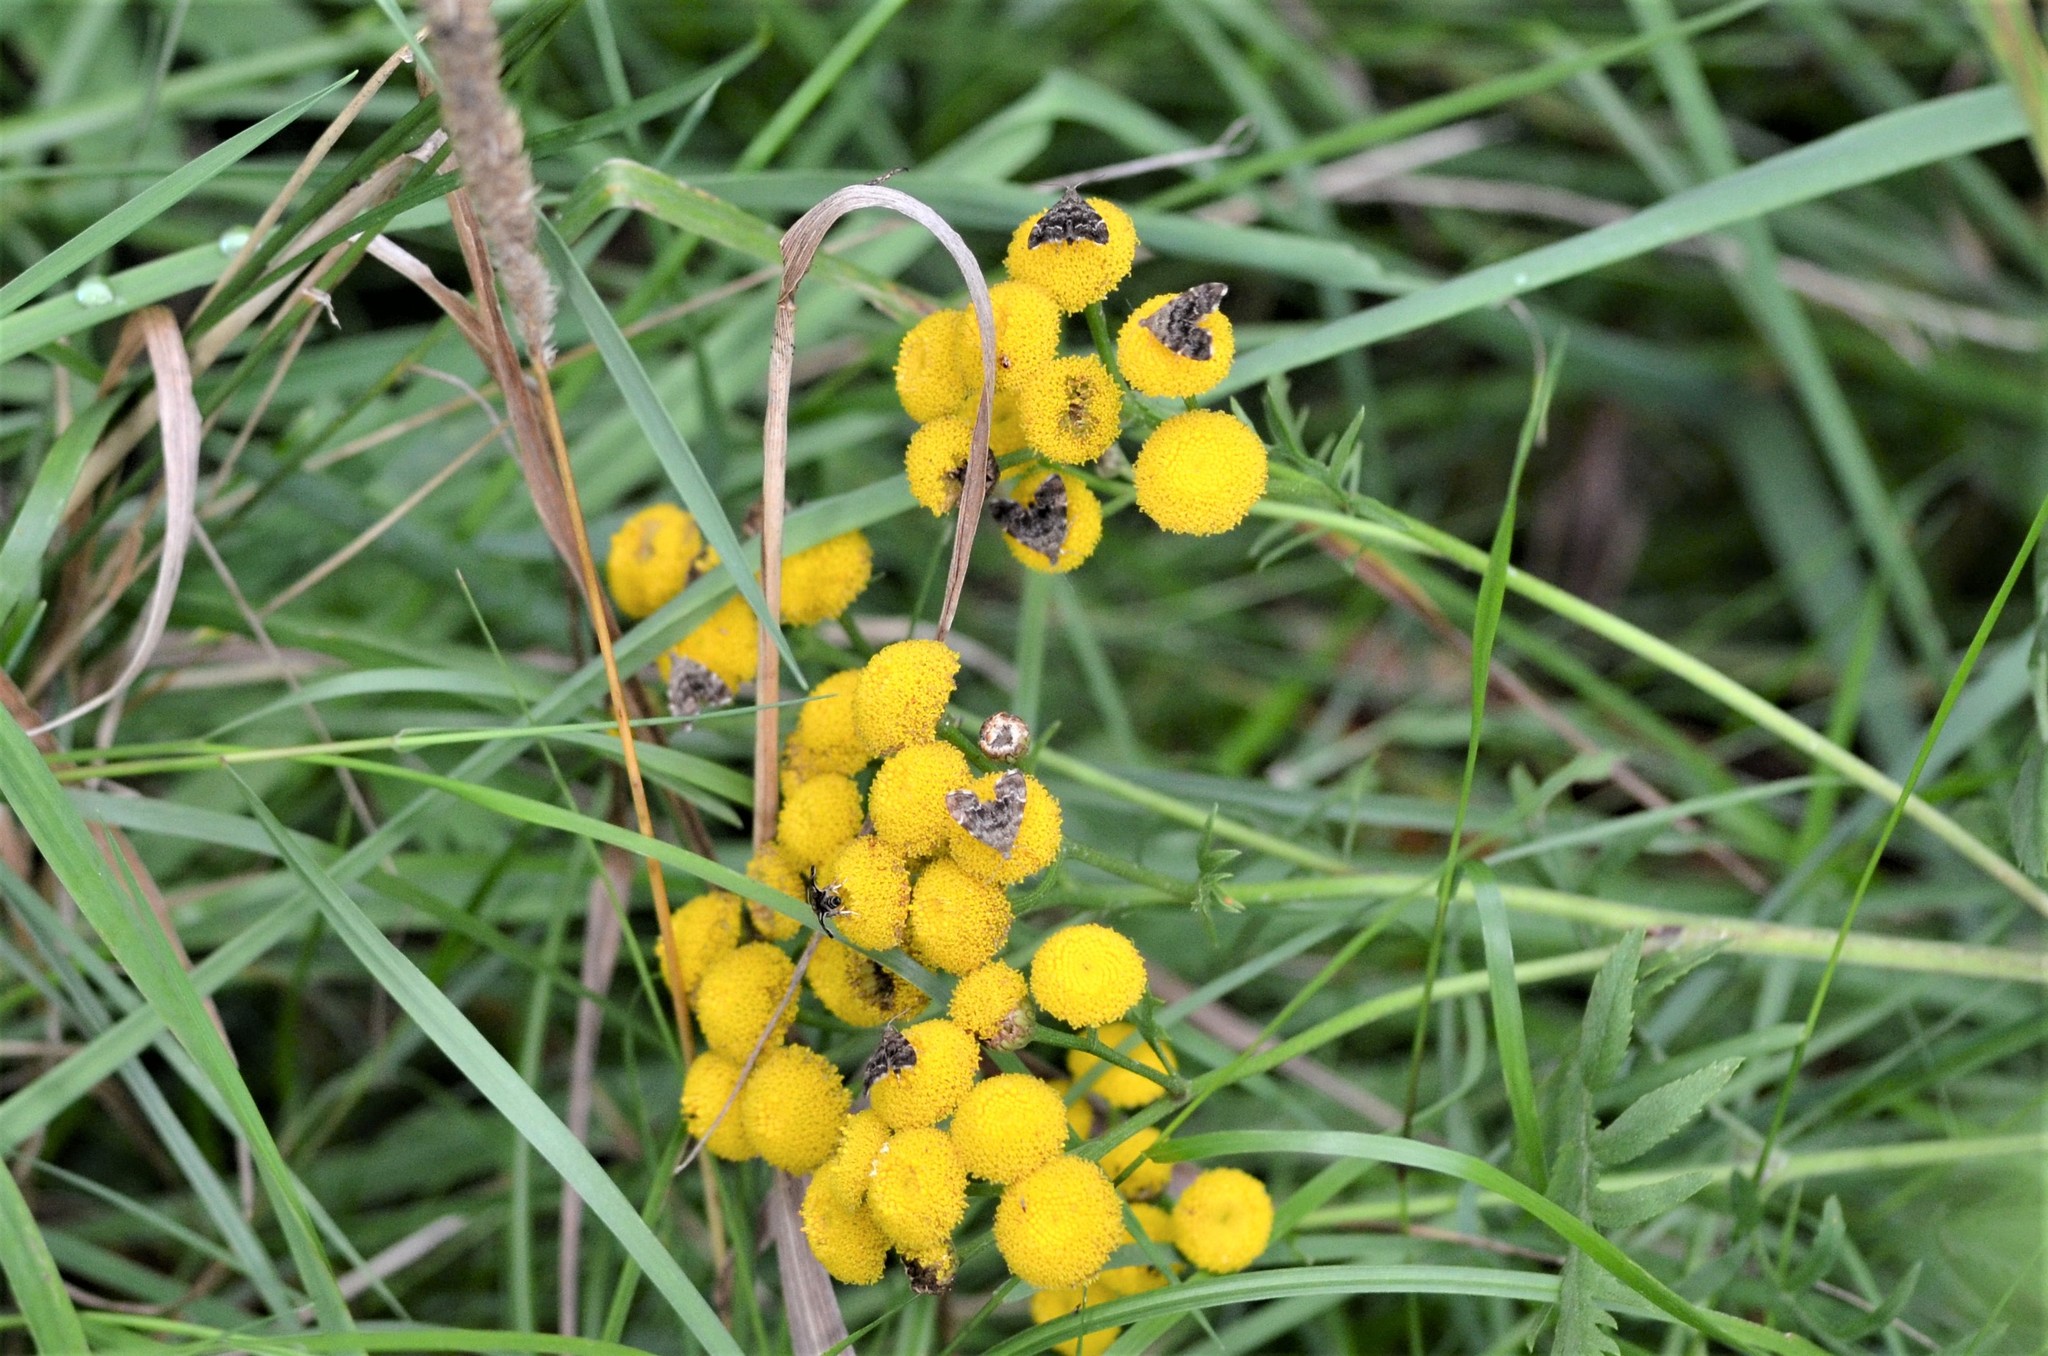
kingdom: Animalia
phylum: Arthropoda
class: Insecta
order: Lepidoptera
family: Choreutidae
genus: Anthophila
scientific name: Anthophila fabriciana
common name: Nettle-tap
